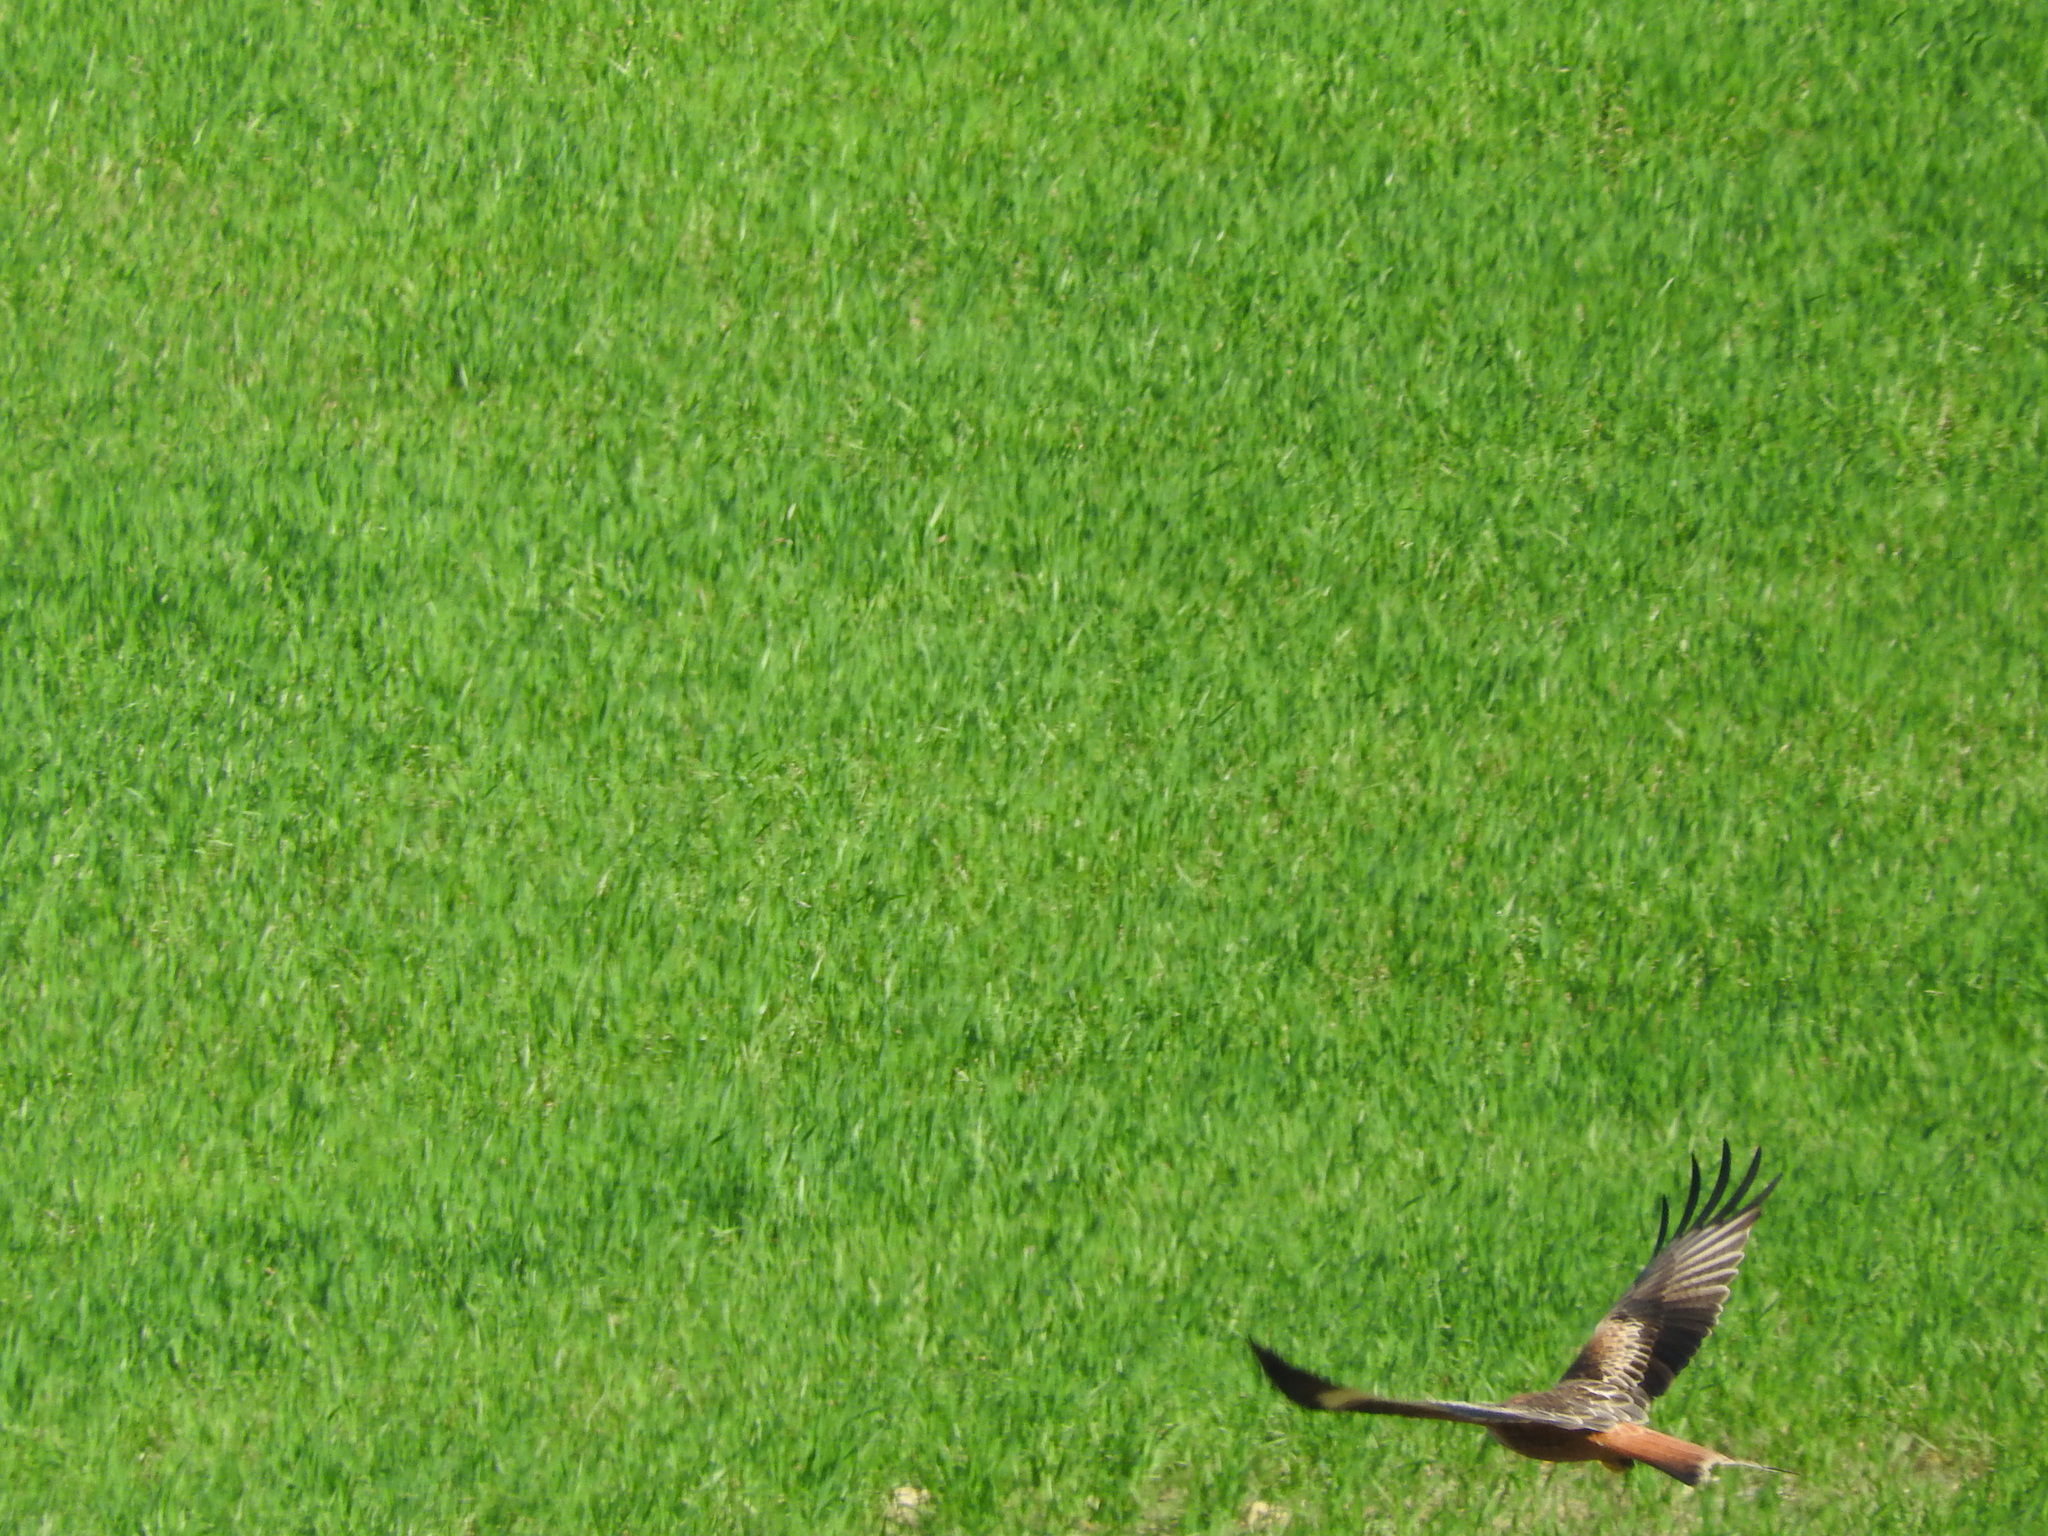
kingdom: Animalia
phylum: Chordata
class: Aves
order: Accipitriformes
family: Accipitridae
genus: Milvus
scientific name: Milvus milvus
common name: Red kite
